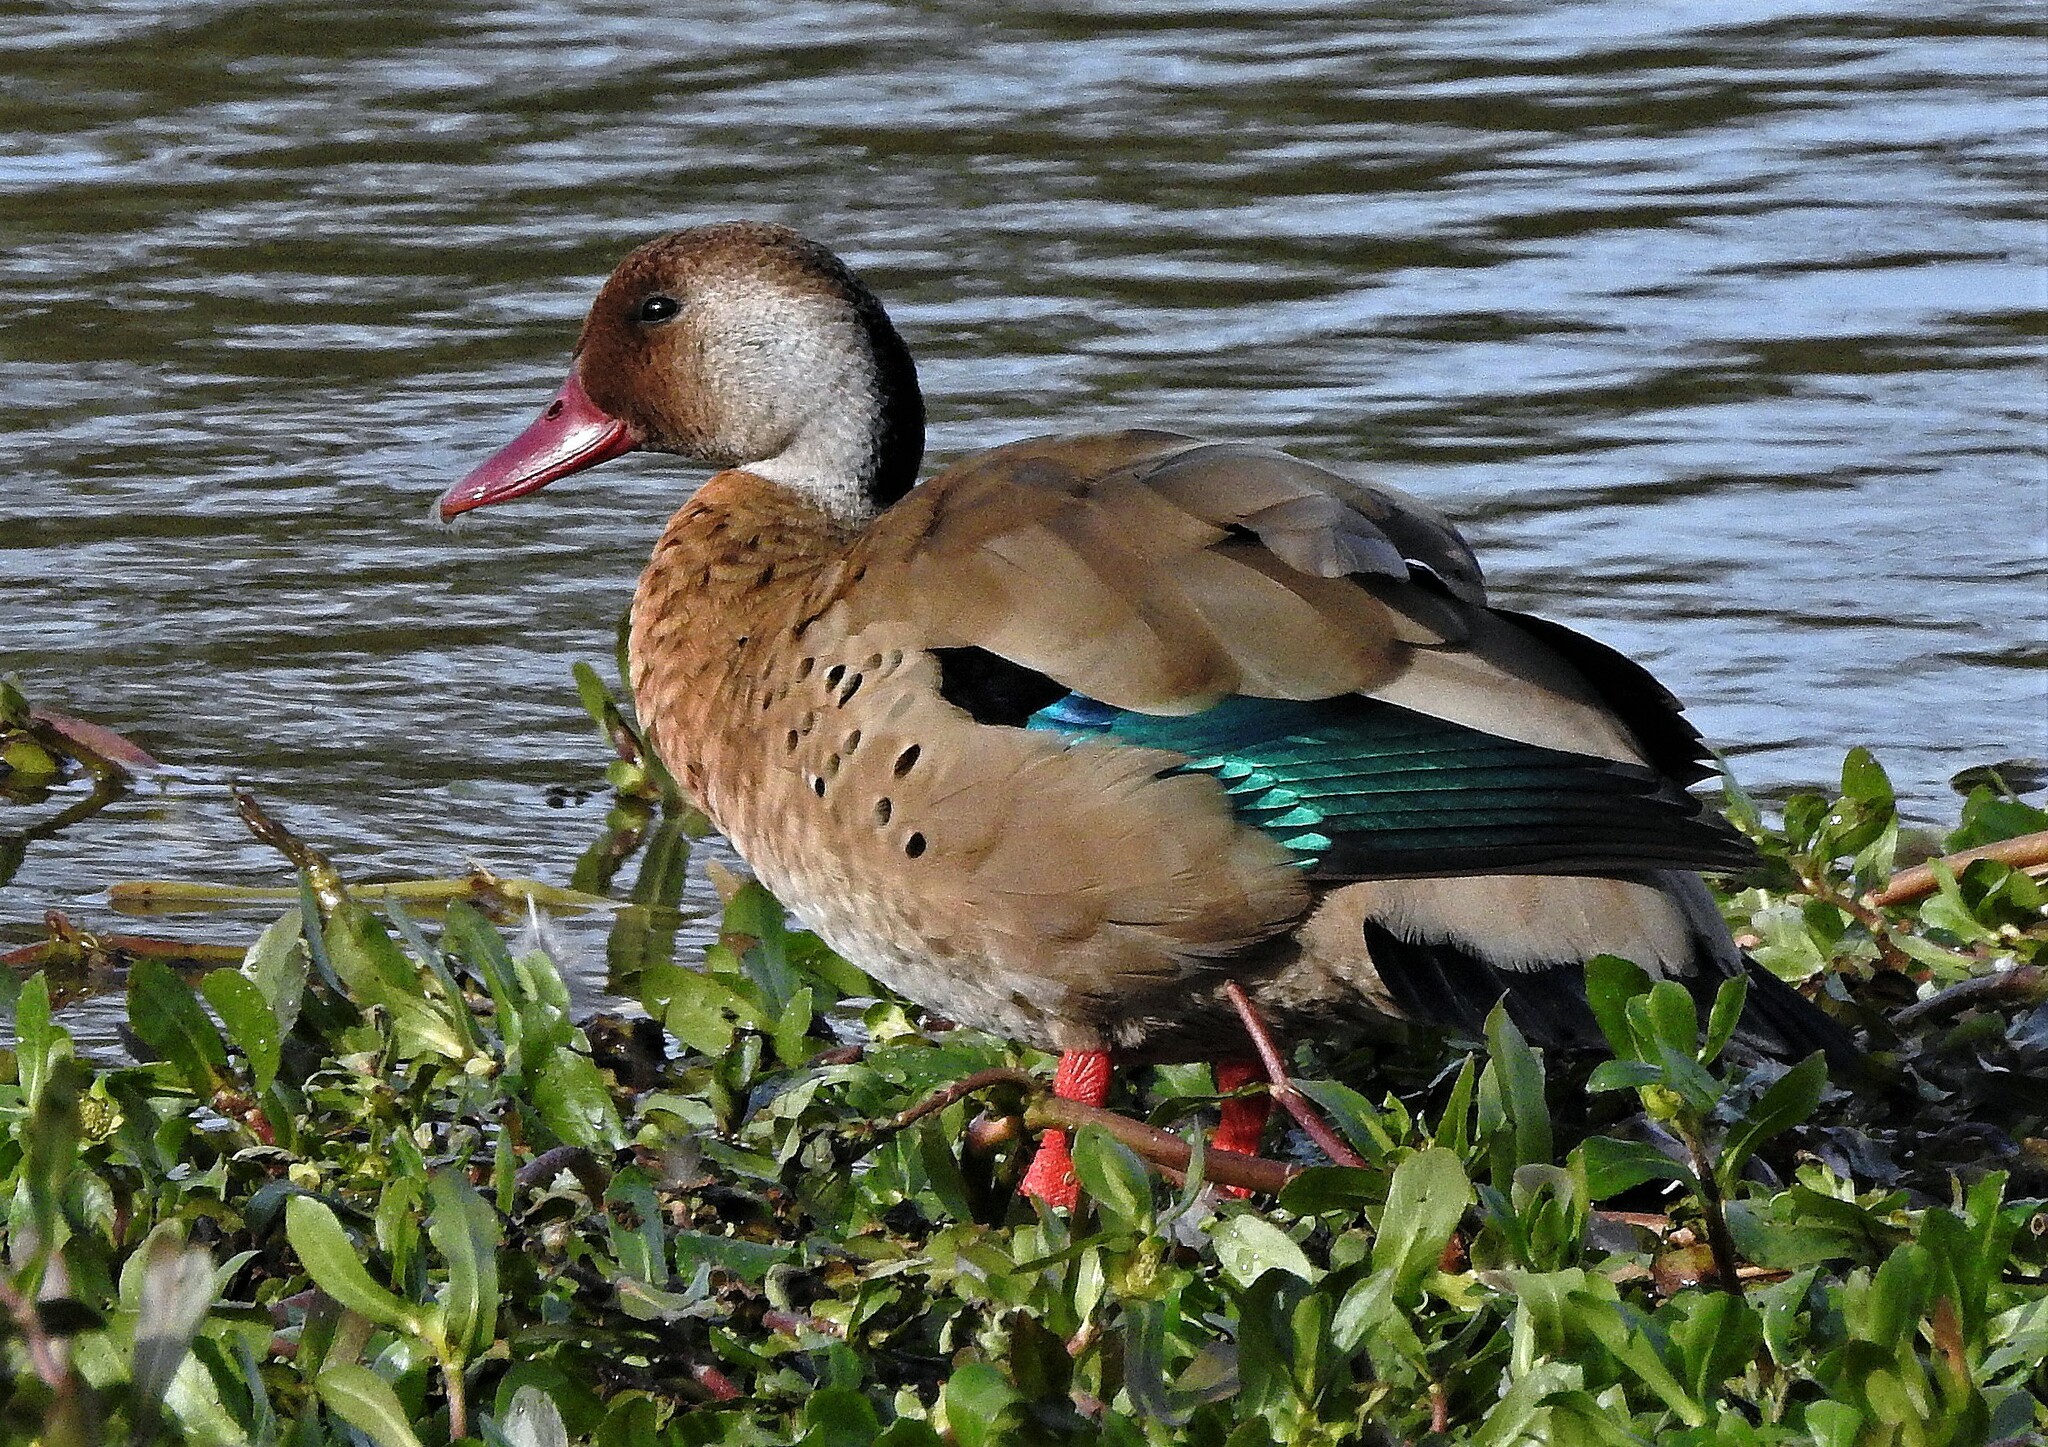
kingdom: Animalia
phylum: Chordata
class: Aves
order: Anseriformes
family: Anatidae
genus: Amazonetta
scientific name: Amazonetta brasiliensis
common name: Brazilian teal
